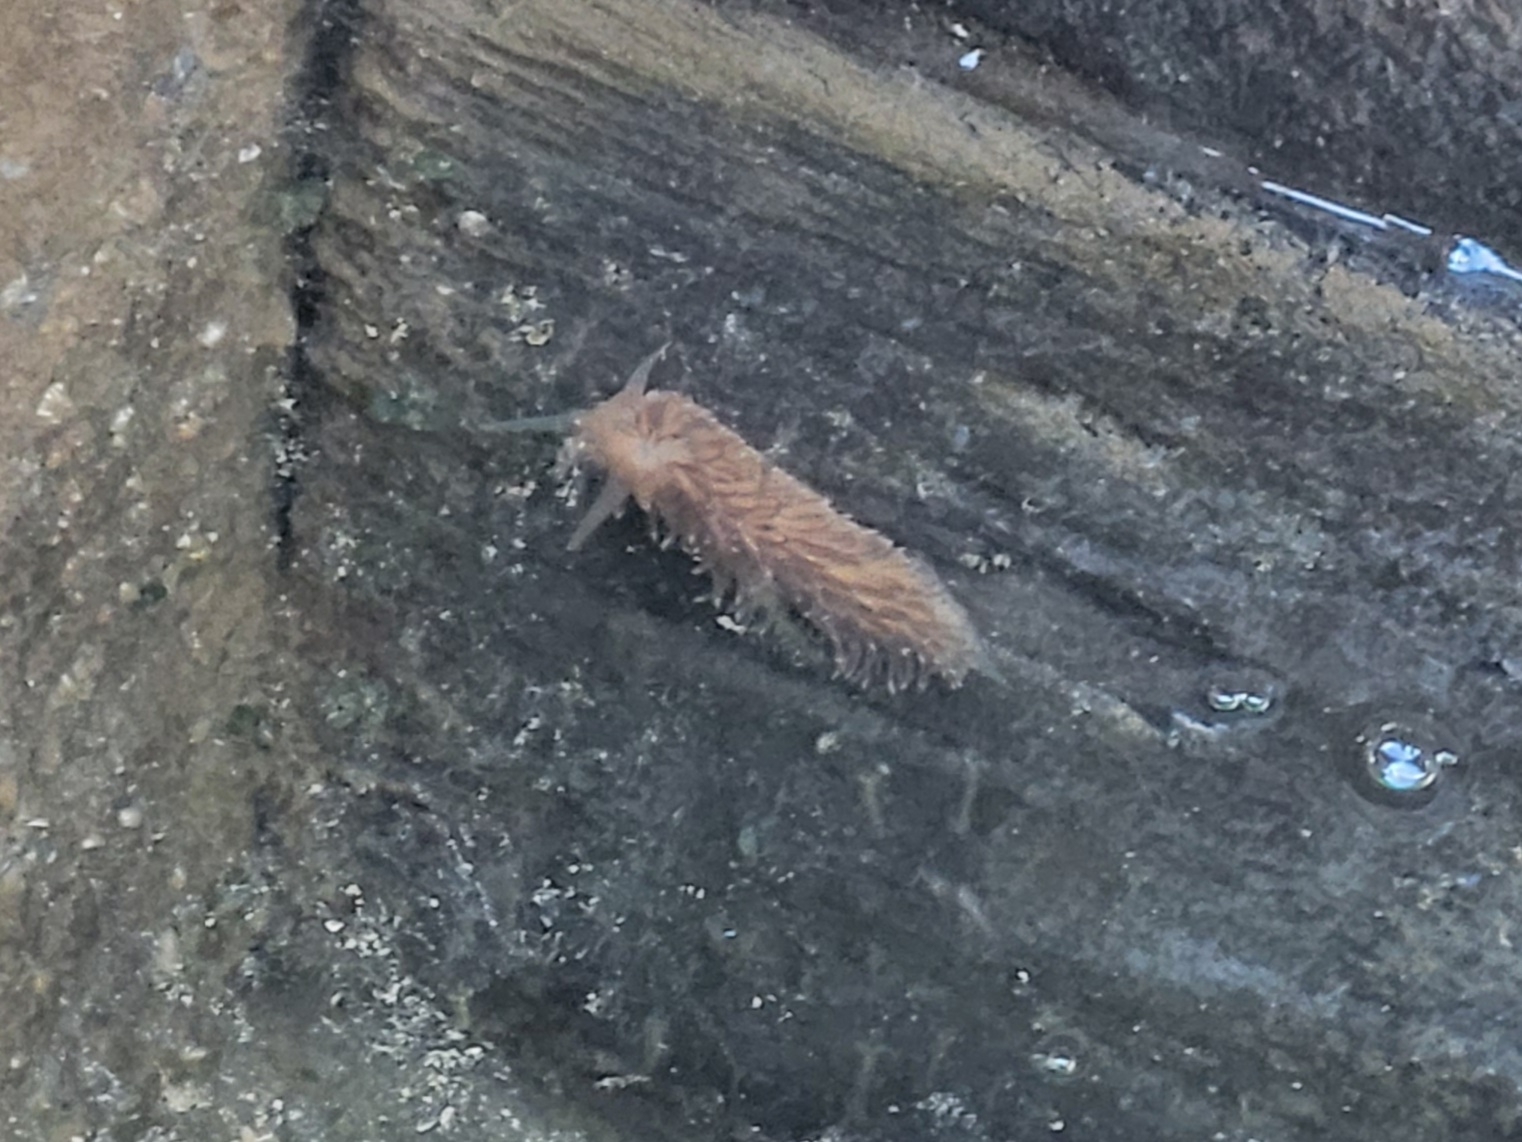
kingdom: Animalia
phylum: Mollusca
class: Gastropoda
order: Nudibranchia
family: Aeolidiidae
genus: Aeolidia
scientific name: Aeolidia papillosa
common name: Common grey sea slug
